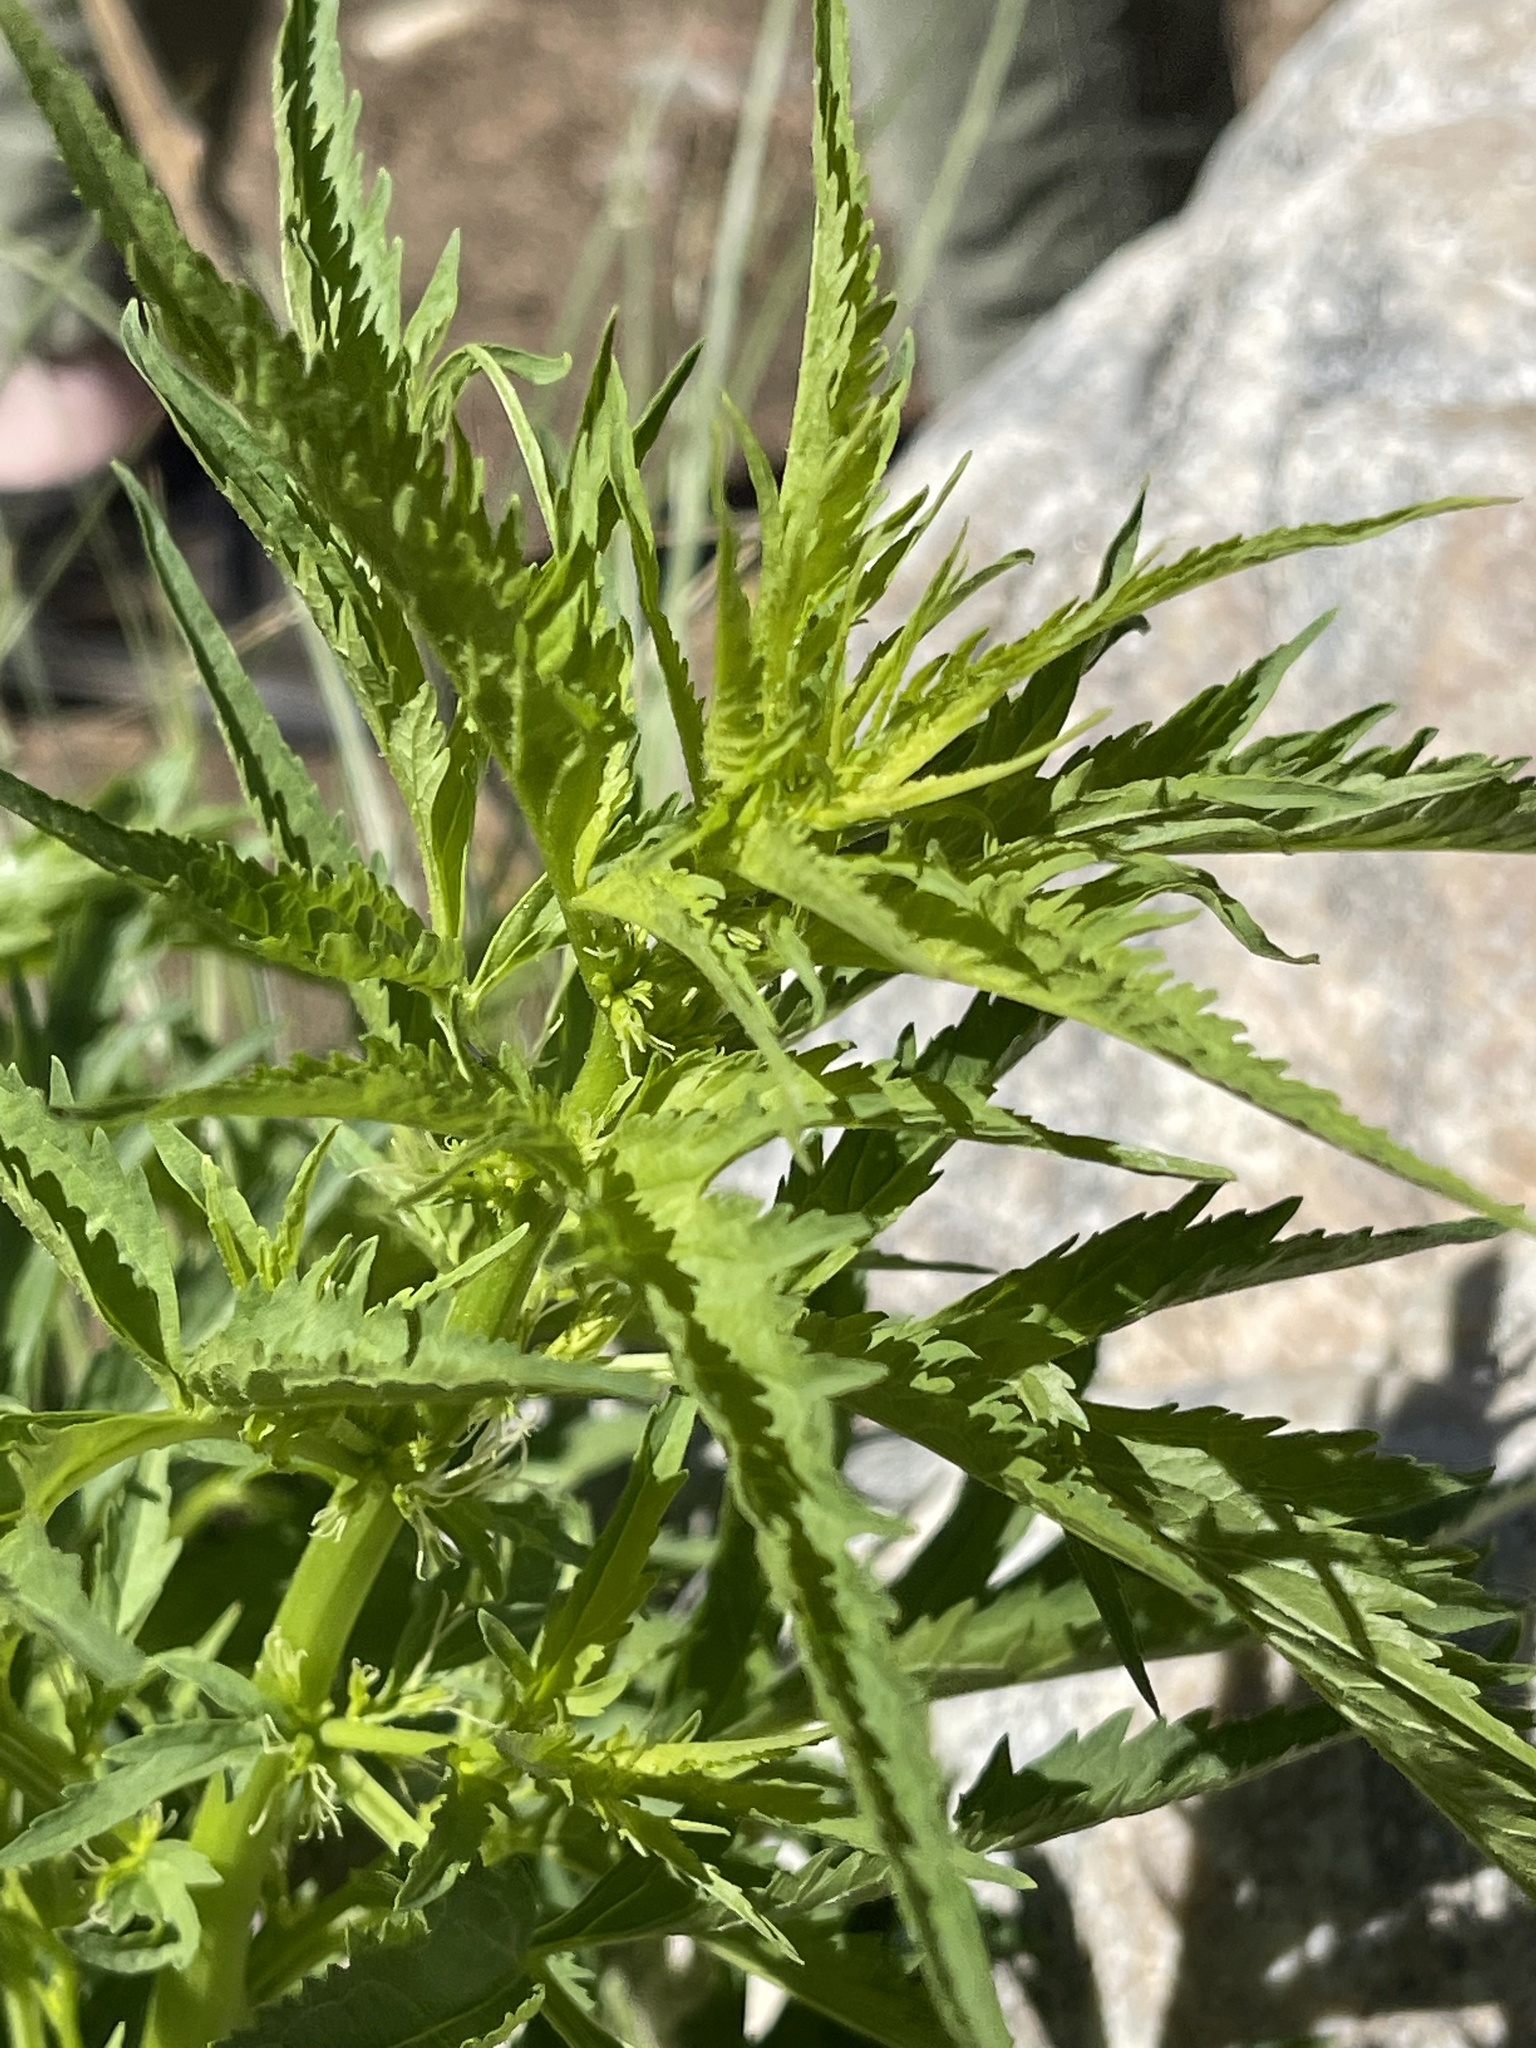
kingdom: Plantae
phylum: Tracheophyta
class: Magnoliopsida
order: Cucurbitales
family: Datiscaceae
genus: Datisca
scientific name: Datisca glomerata
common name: Durango-root
